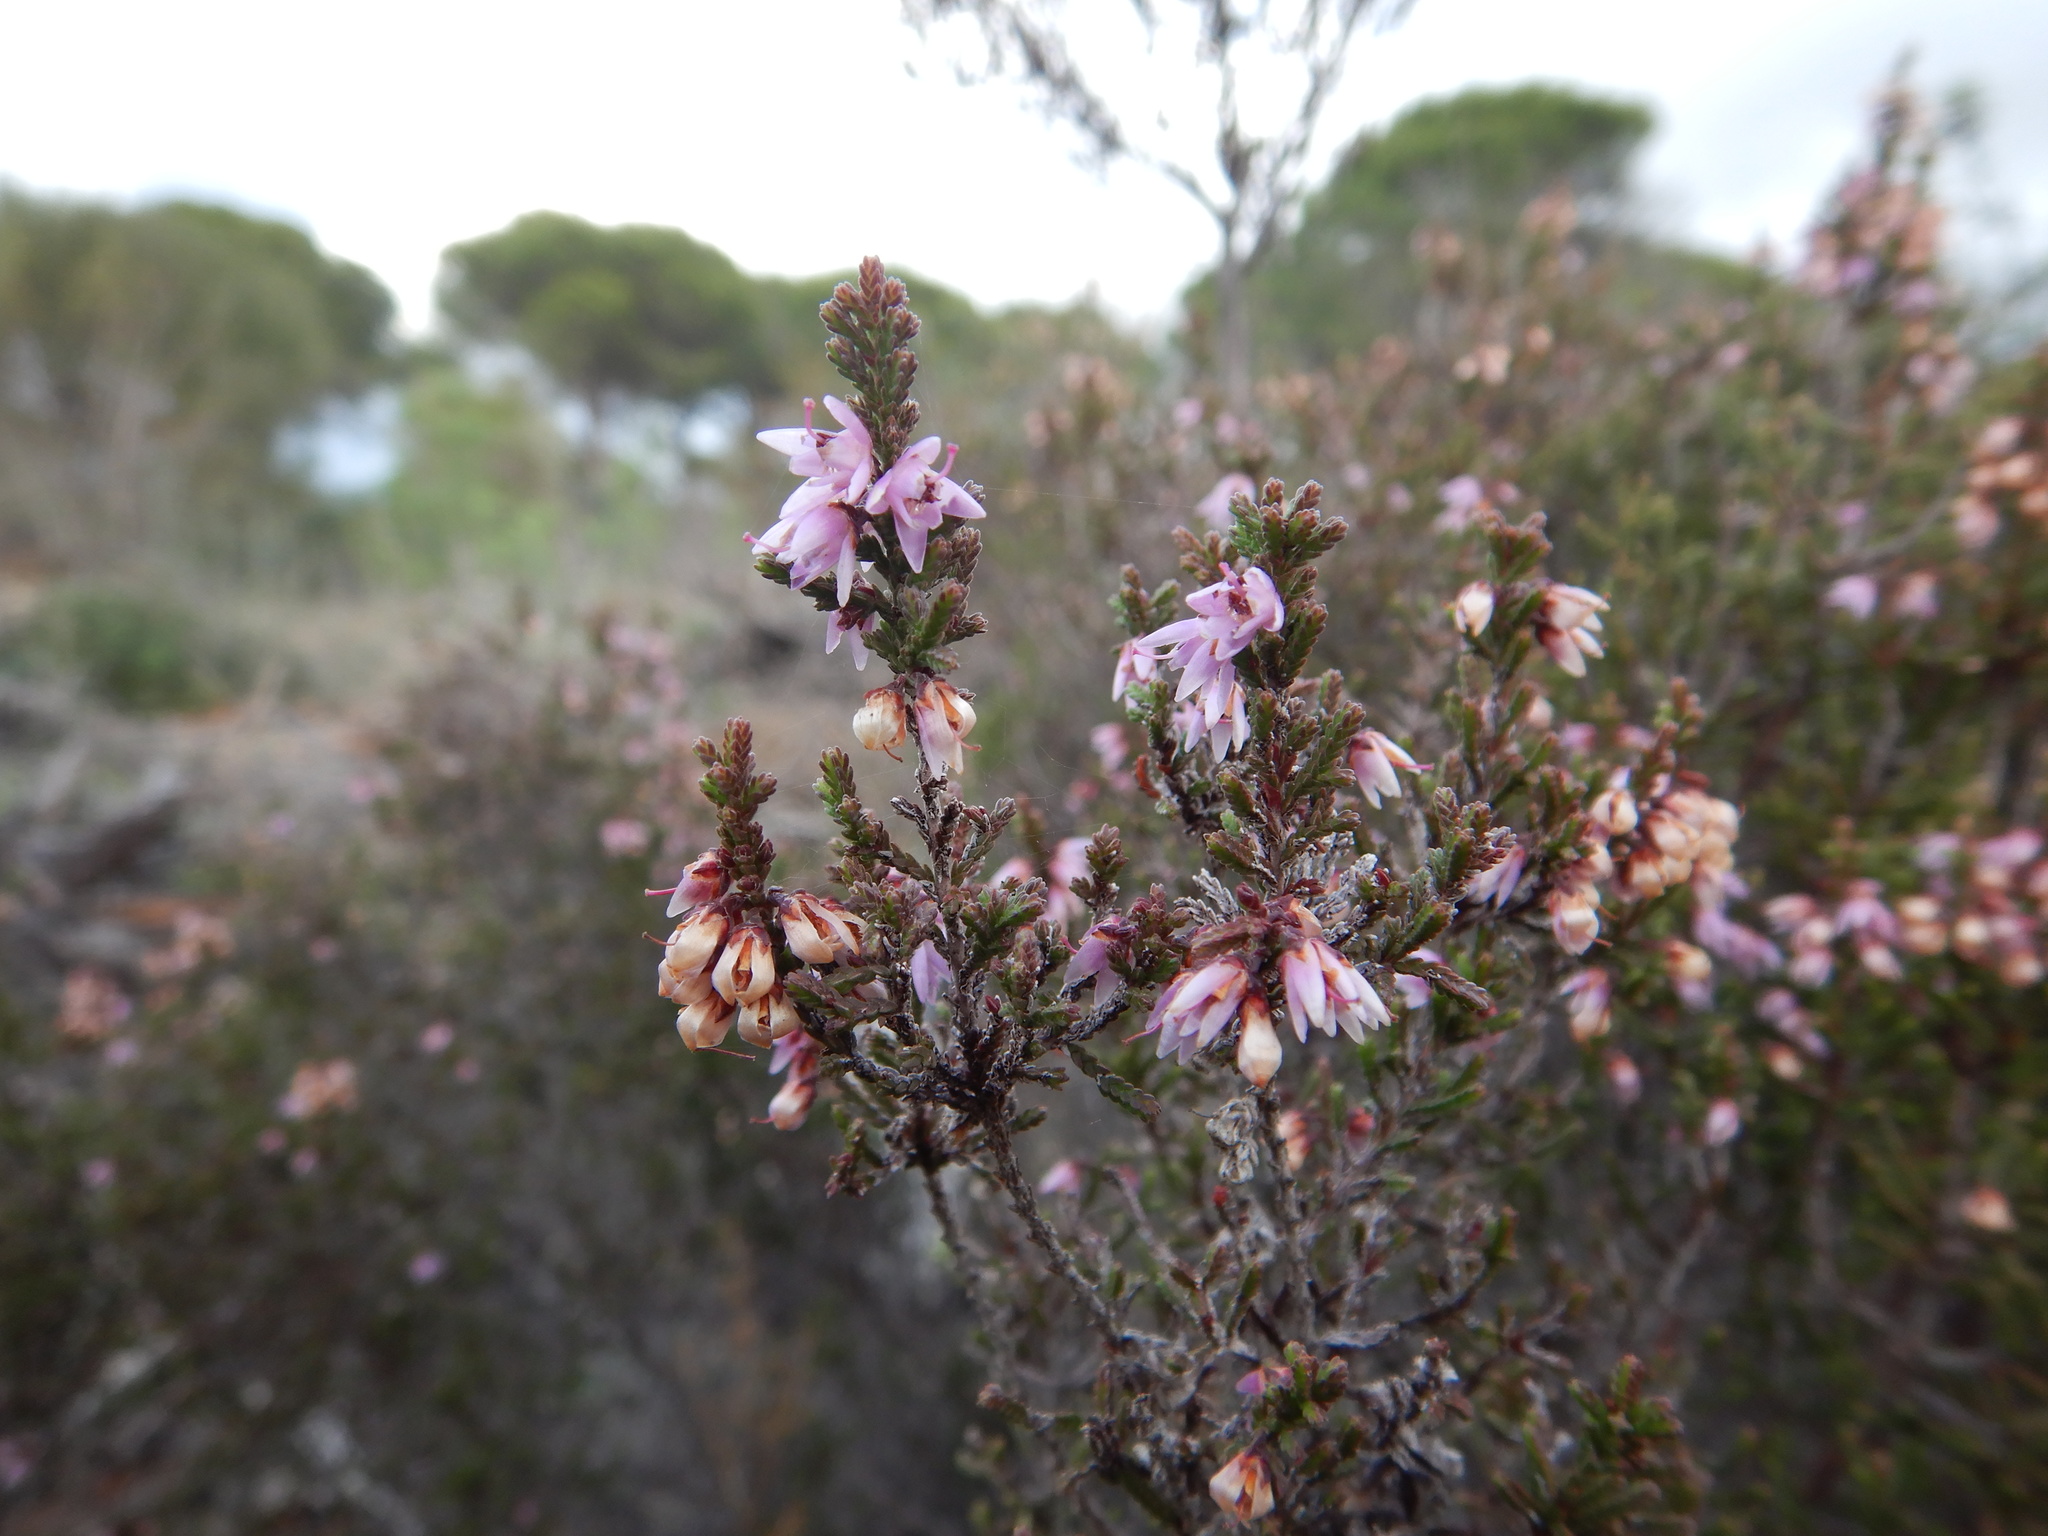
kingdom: Plantae
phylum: Tracheophyta
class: Magnoliopsida
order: Ericales
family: Ericaceae
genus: Calluna
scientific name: Calluna vulgaris
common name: Heather
